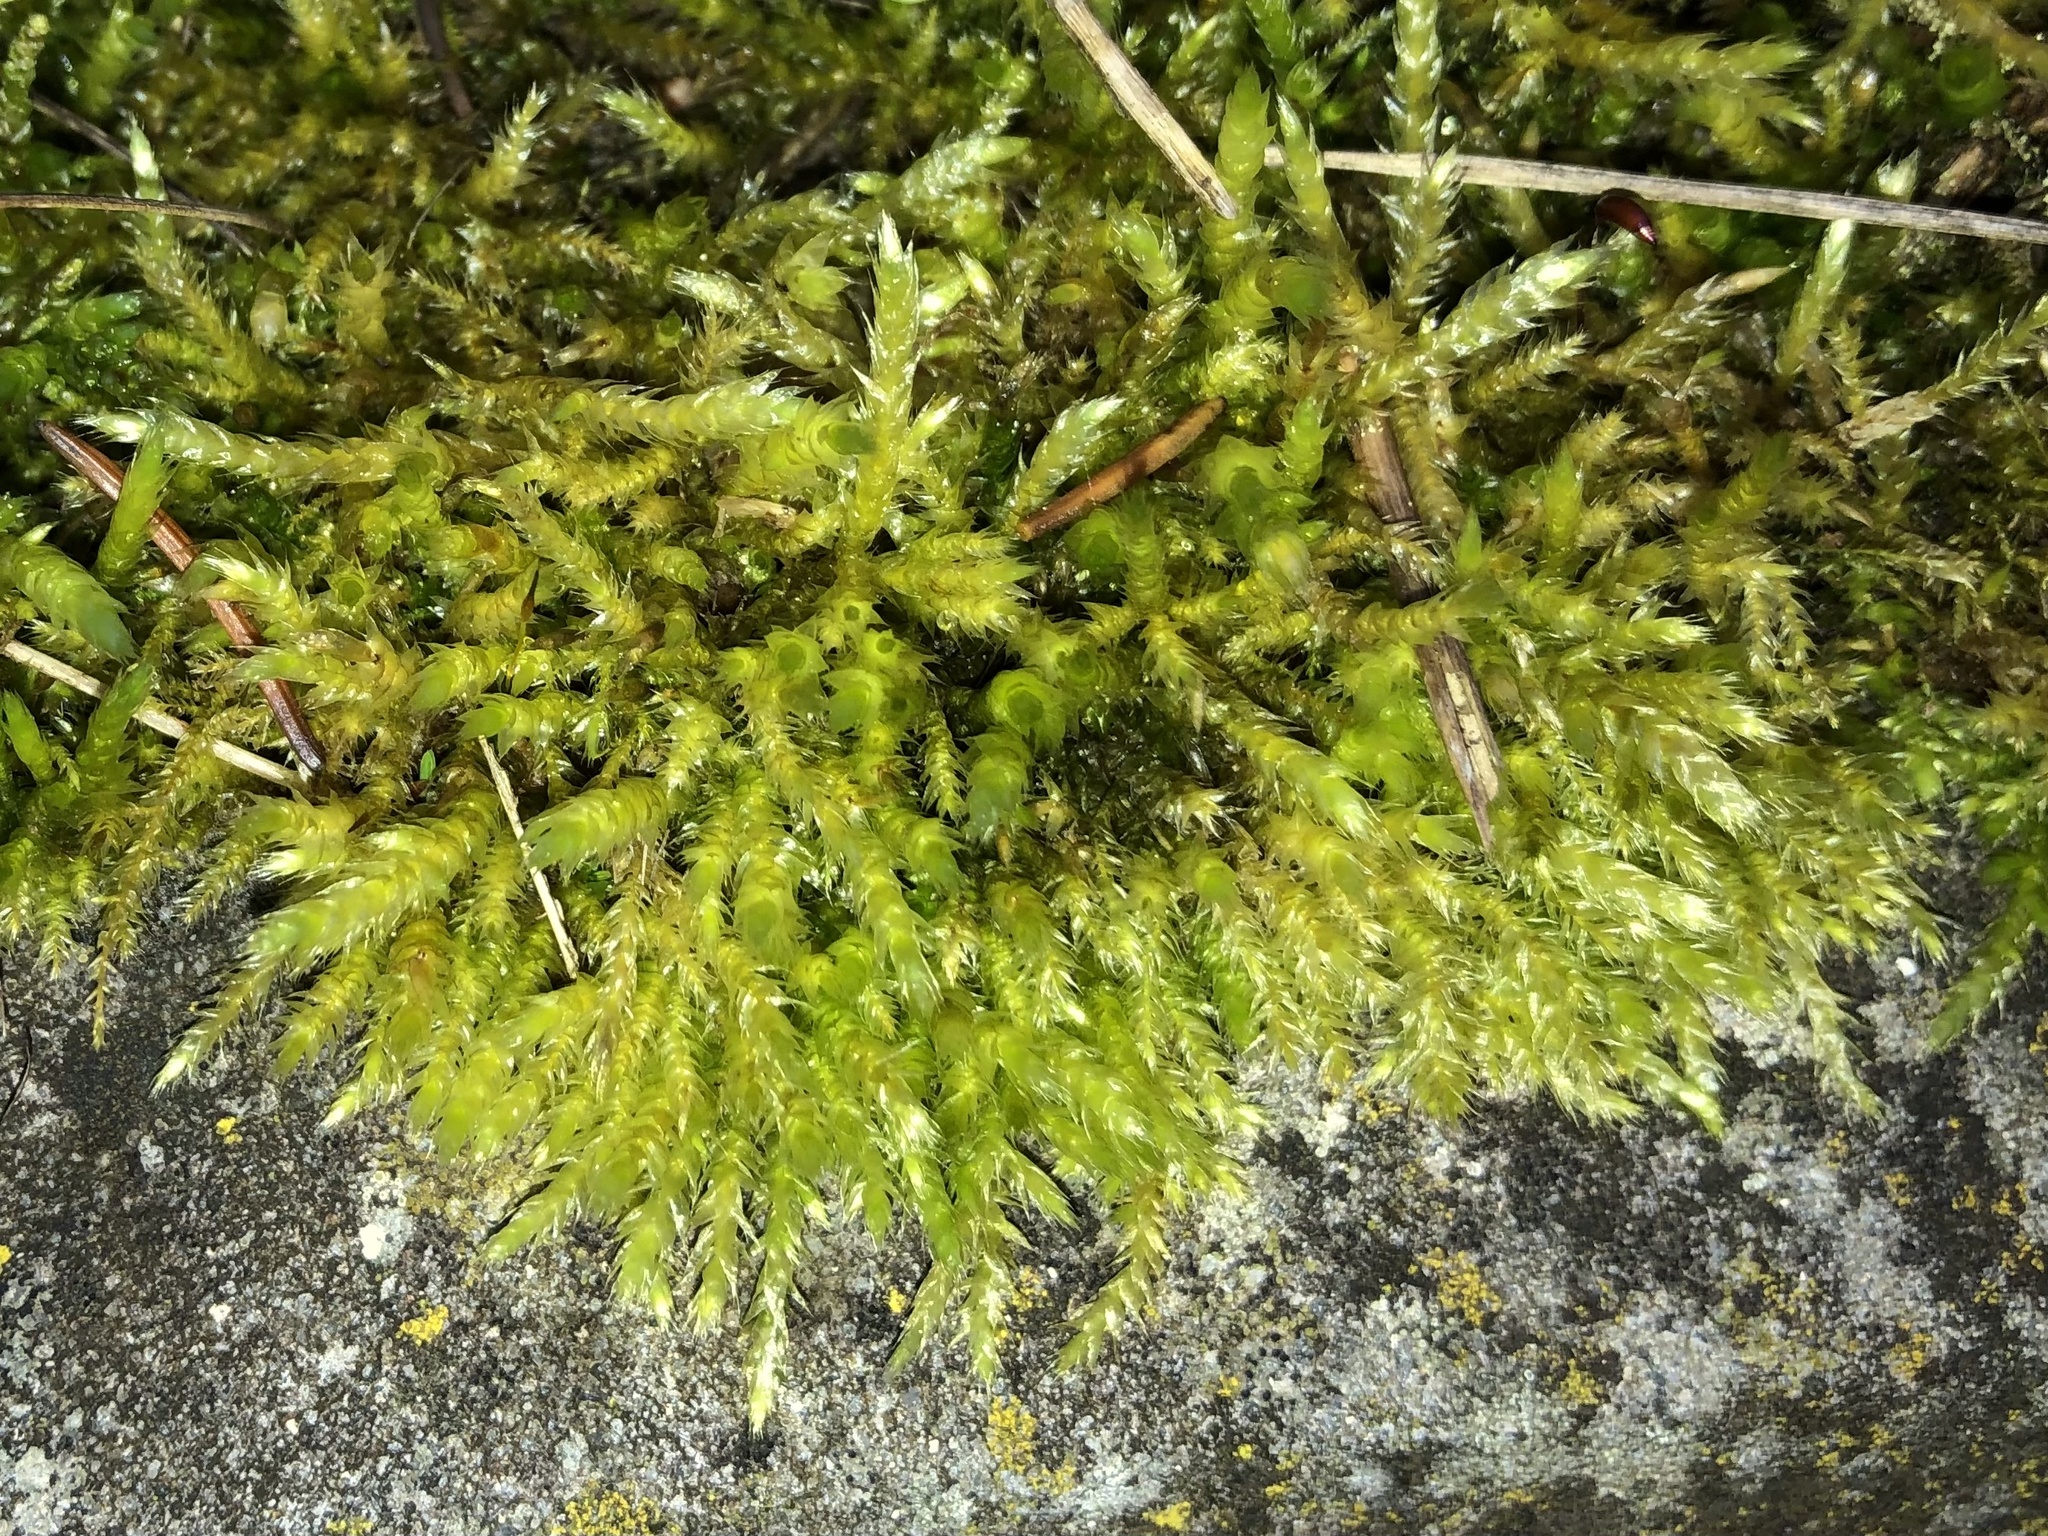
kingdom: Plantae
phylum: Bryophyta
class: Bryopsida
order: Hypnales
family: Brachytheciaceae
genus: Brachythecium
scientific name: Brachythecium rutabulum
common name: Rough-stalked feather-moss
